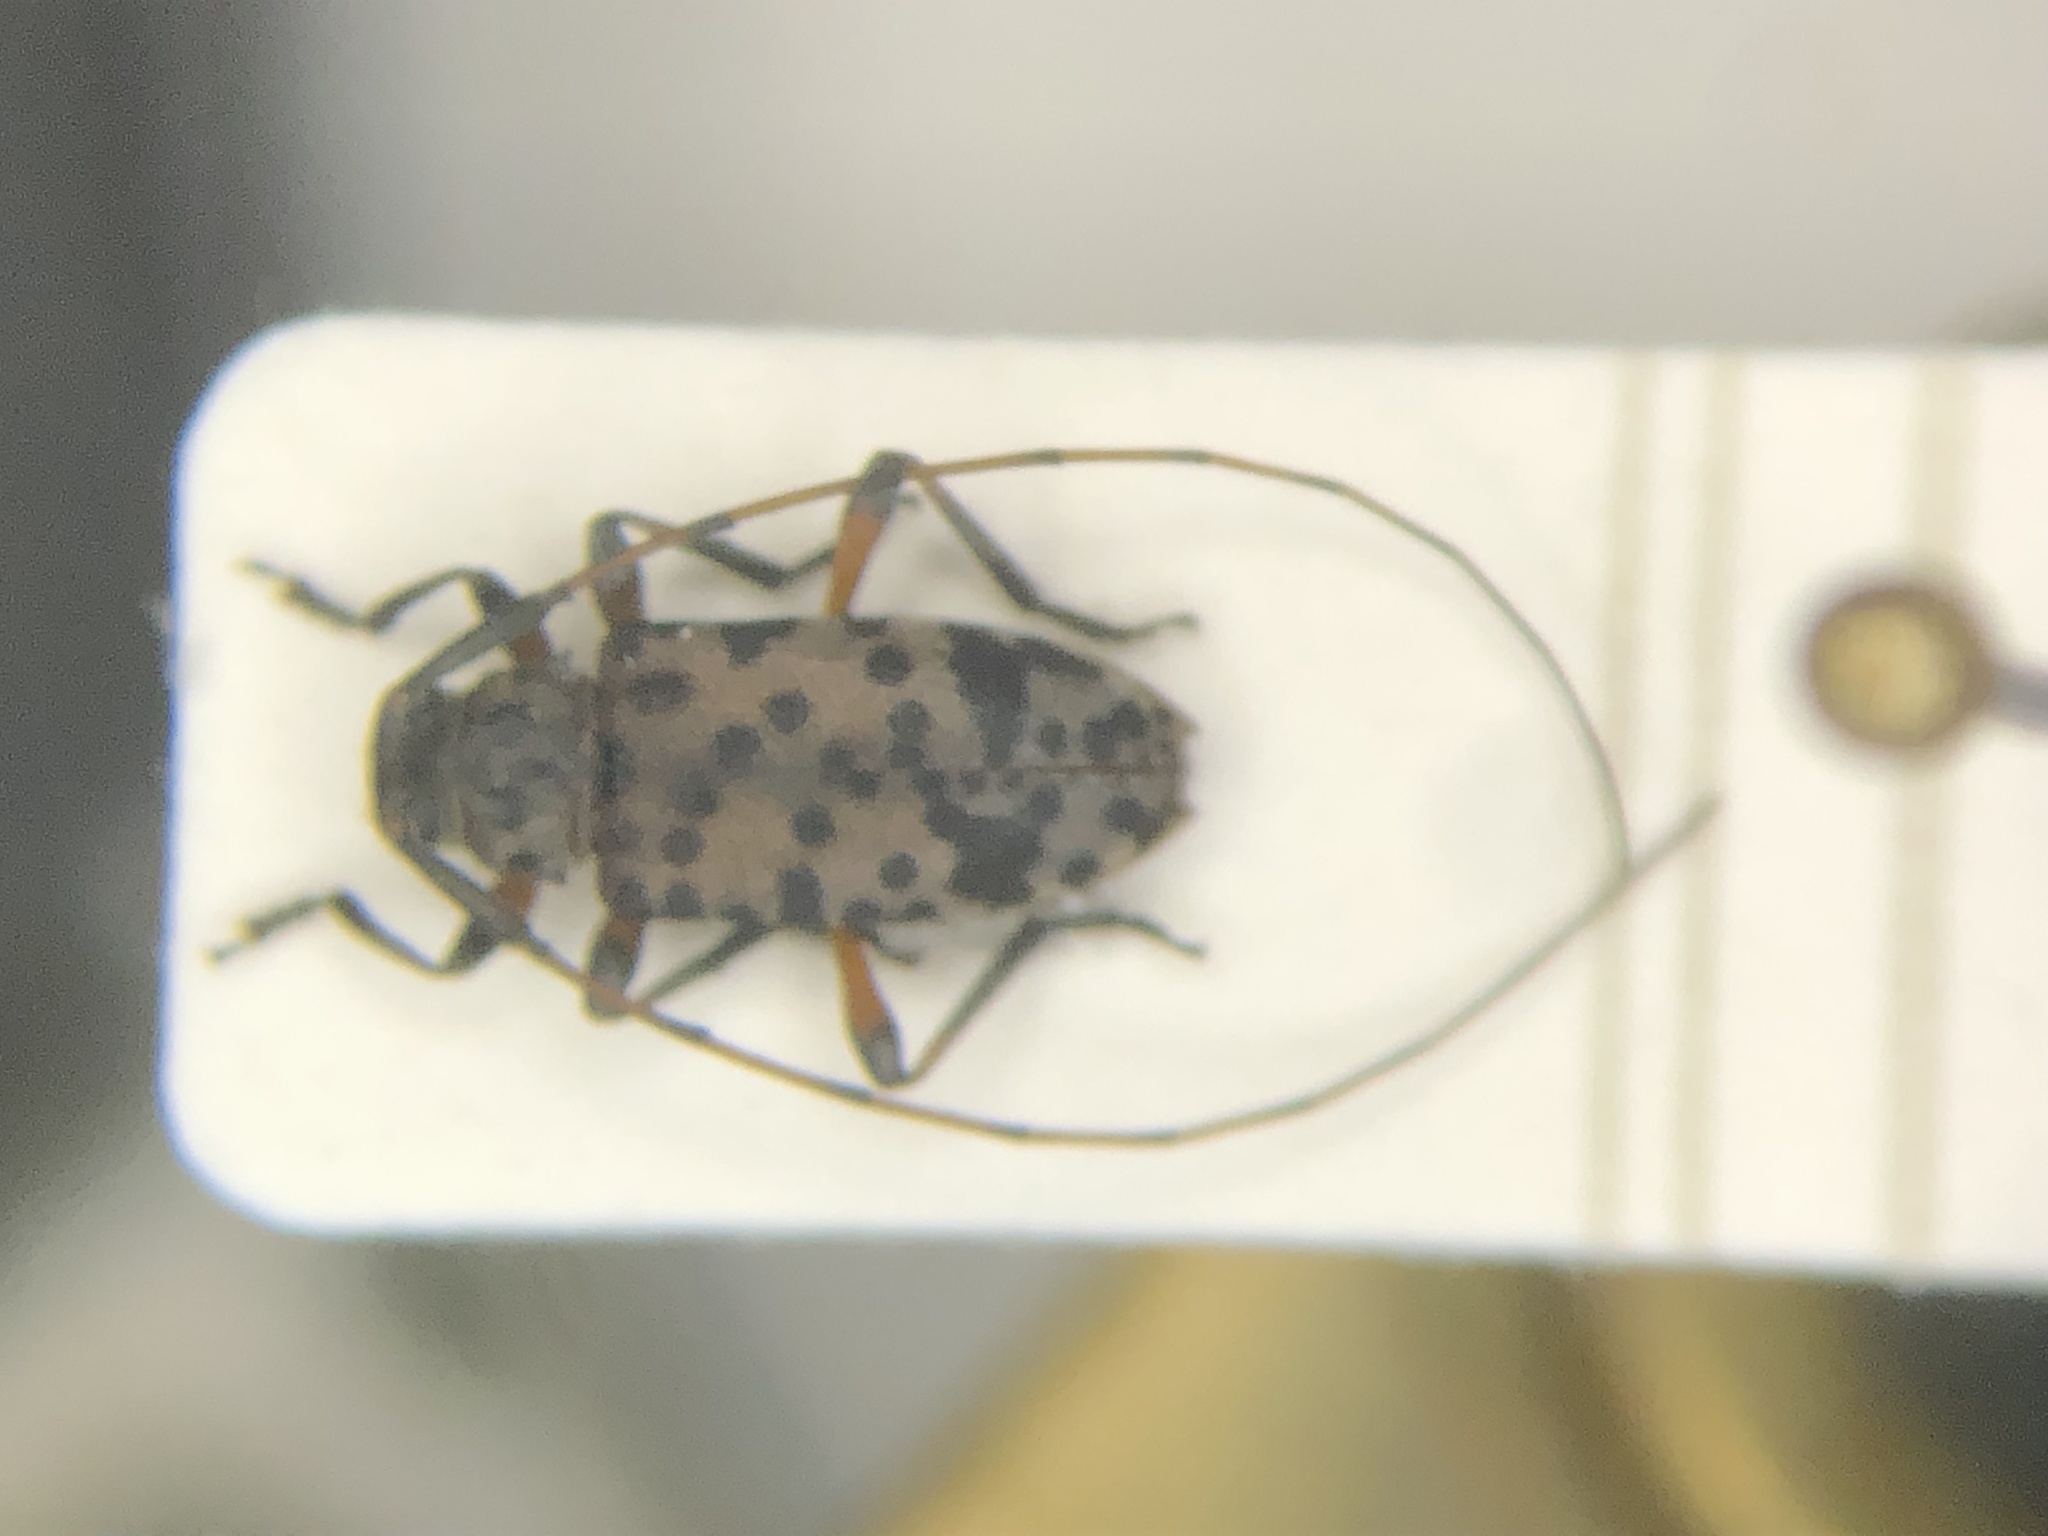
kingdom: Animalia
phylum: Arthropoda
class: Insecta
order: Coleoptera
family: Cerambycidae
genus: Hyperplatys
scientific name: Hyperplatys aspersa
